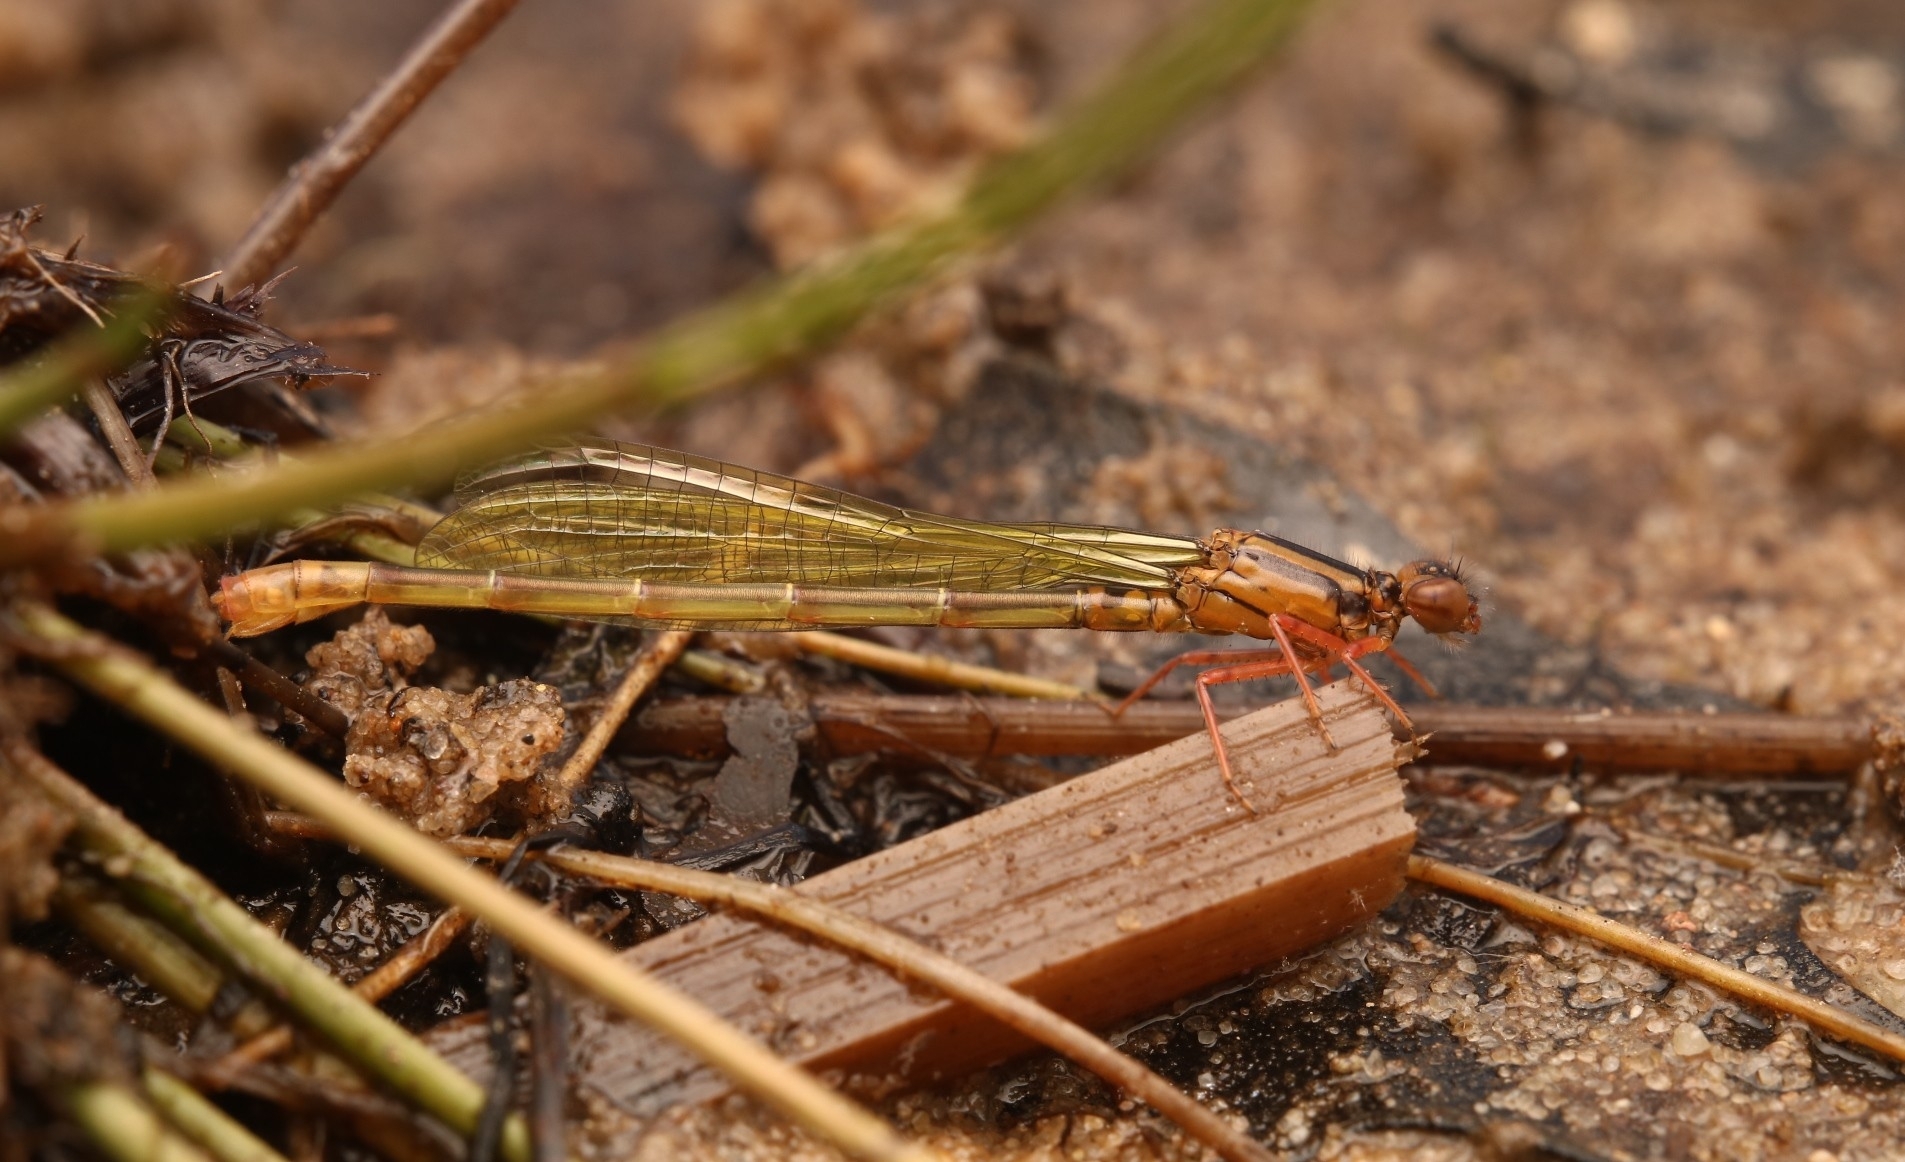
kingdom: Animalia
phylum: Arthropoda
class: Insecta
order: Odonata
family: Coenagrionidae
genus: Ischnura
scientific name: Ischnura kellicotti
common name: Lilypad forktail
